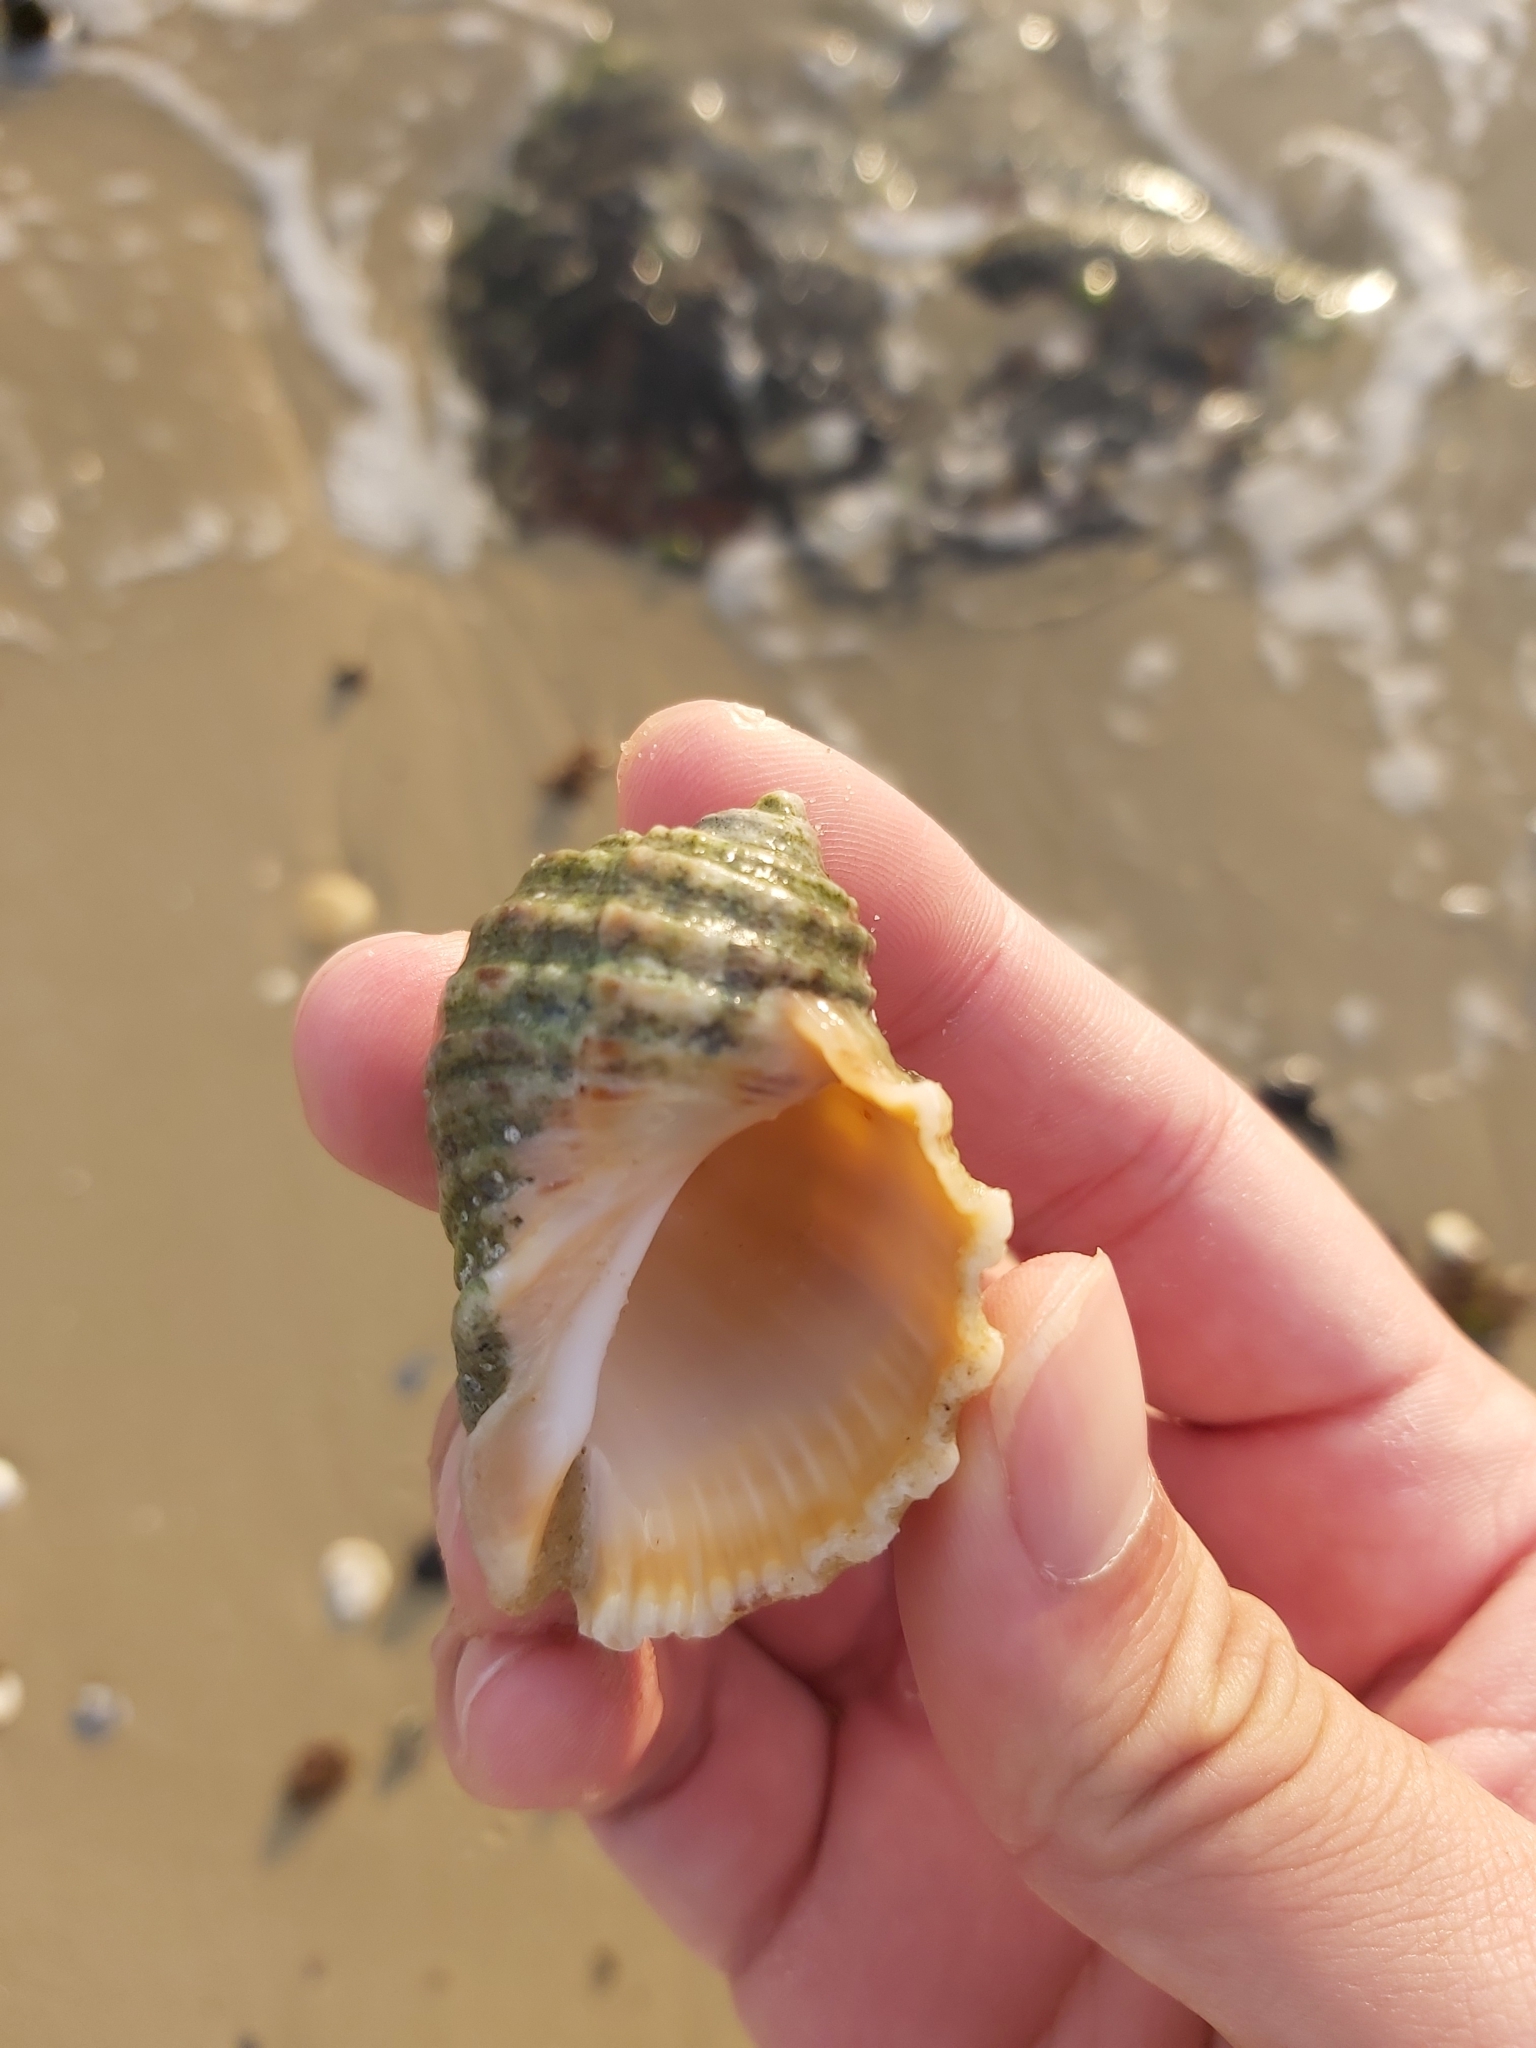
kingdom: Animalia
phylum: Mollusca
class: Gastropoda
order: Neogastropoda
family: Muricidae
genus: Dicathais
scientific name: Dicathais orbita
